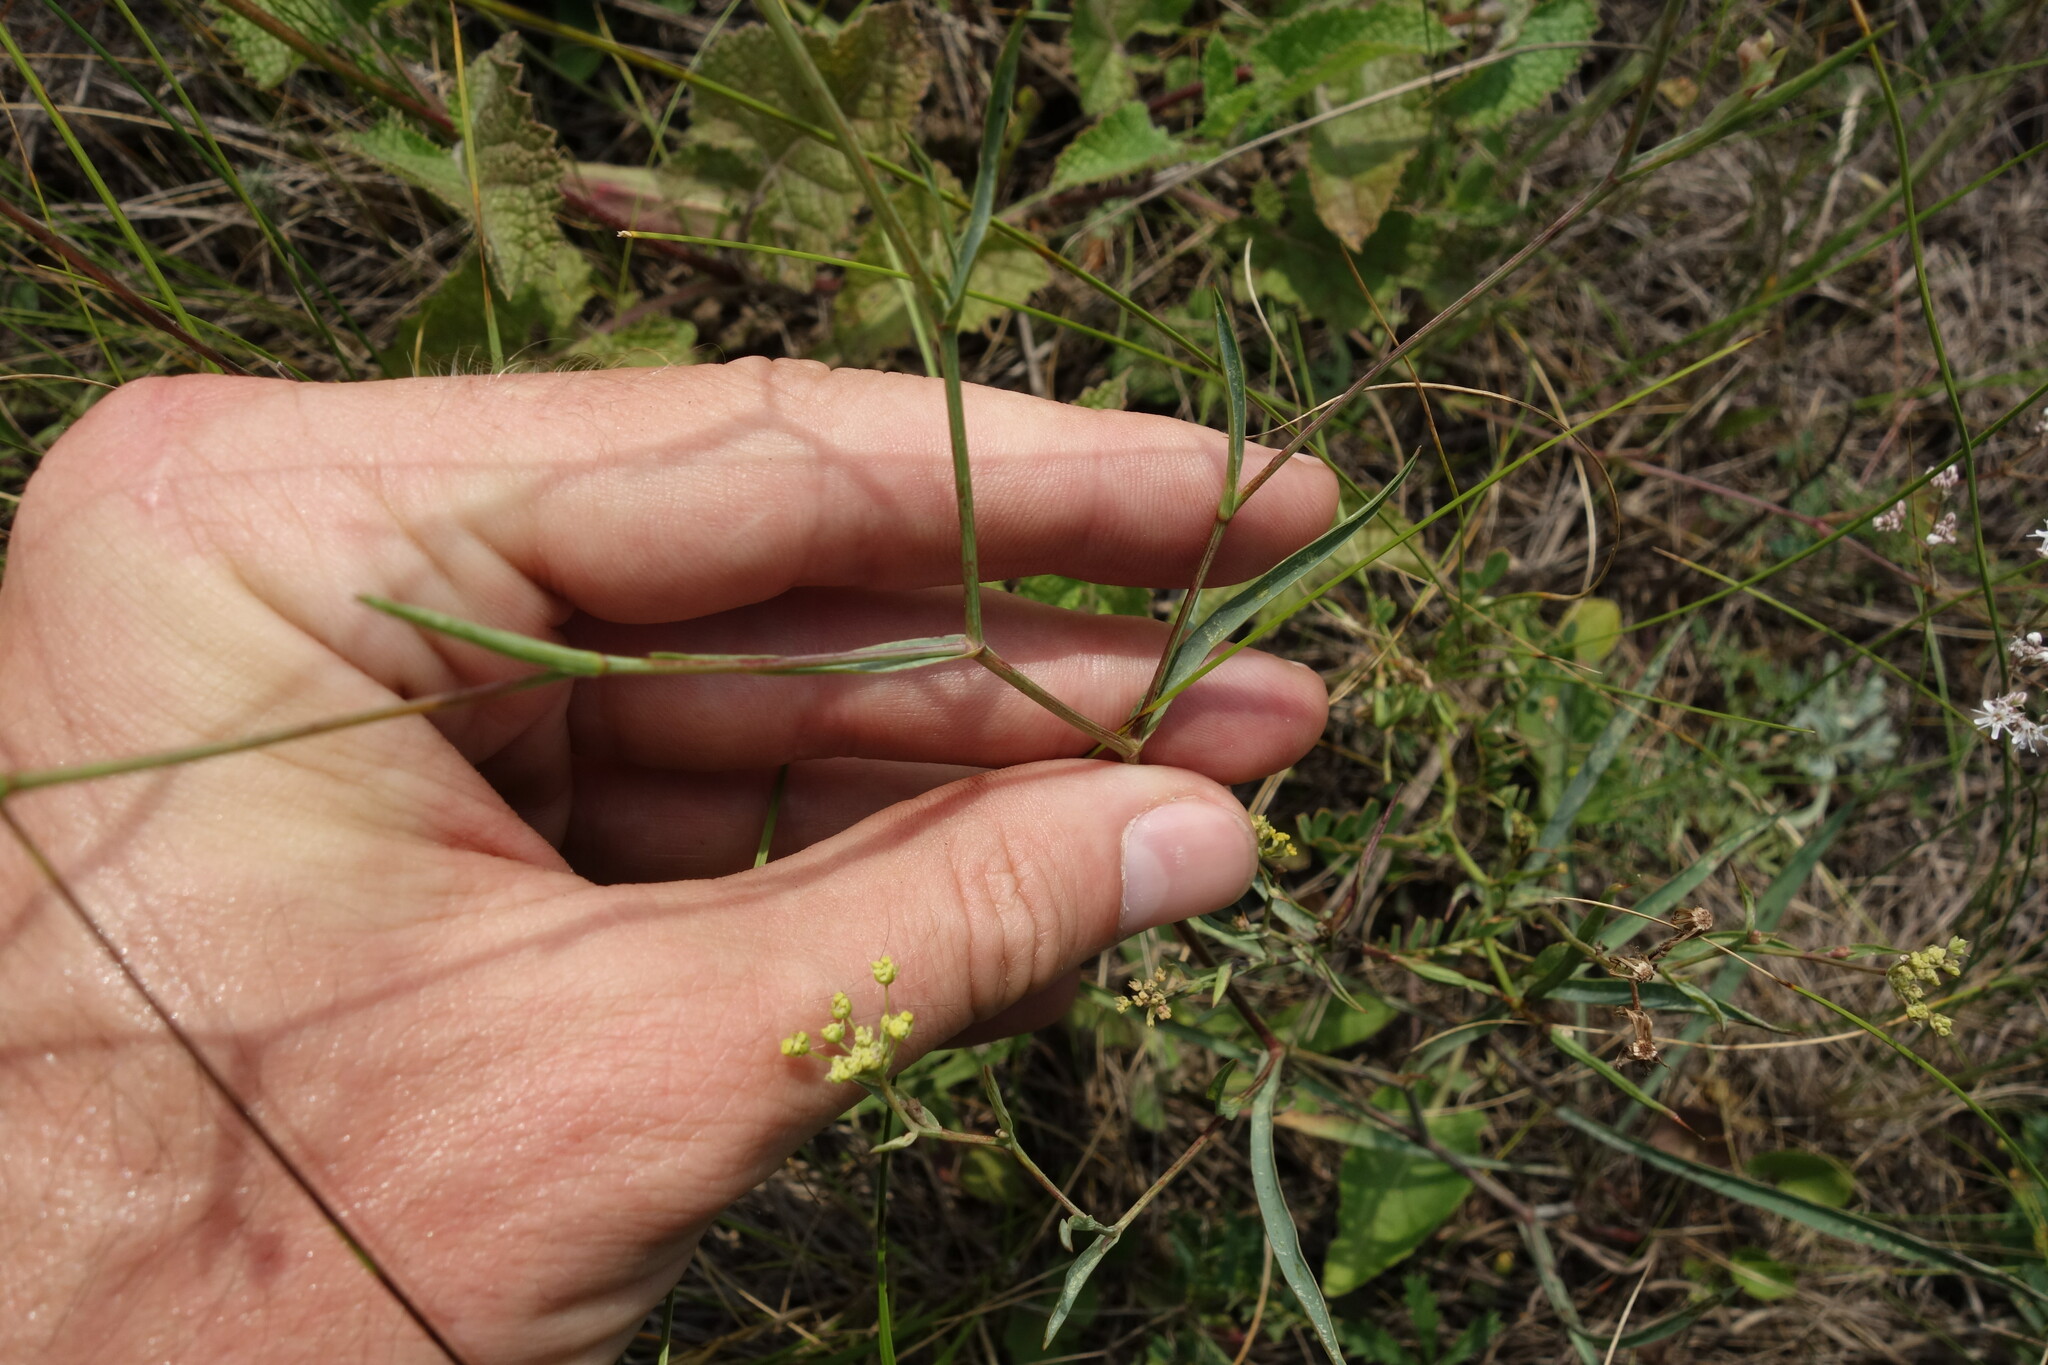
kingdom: Plantae
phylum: Tracheophyta
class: Magnoliopsida
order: Apiales
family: Apiaceae
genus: Bupleurum
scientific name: Bupleurum falcatum
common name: Sickle-leaved hare's-ear
